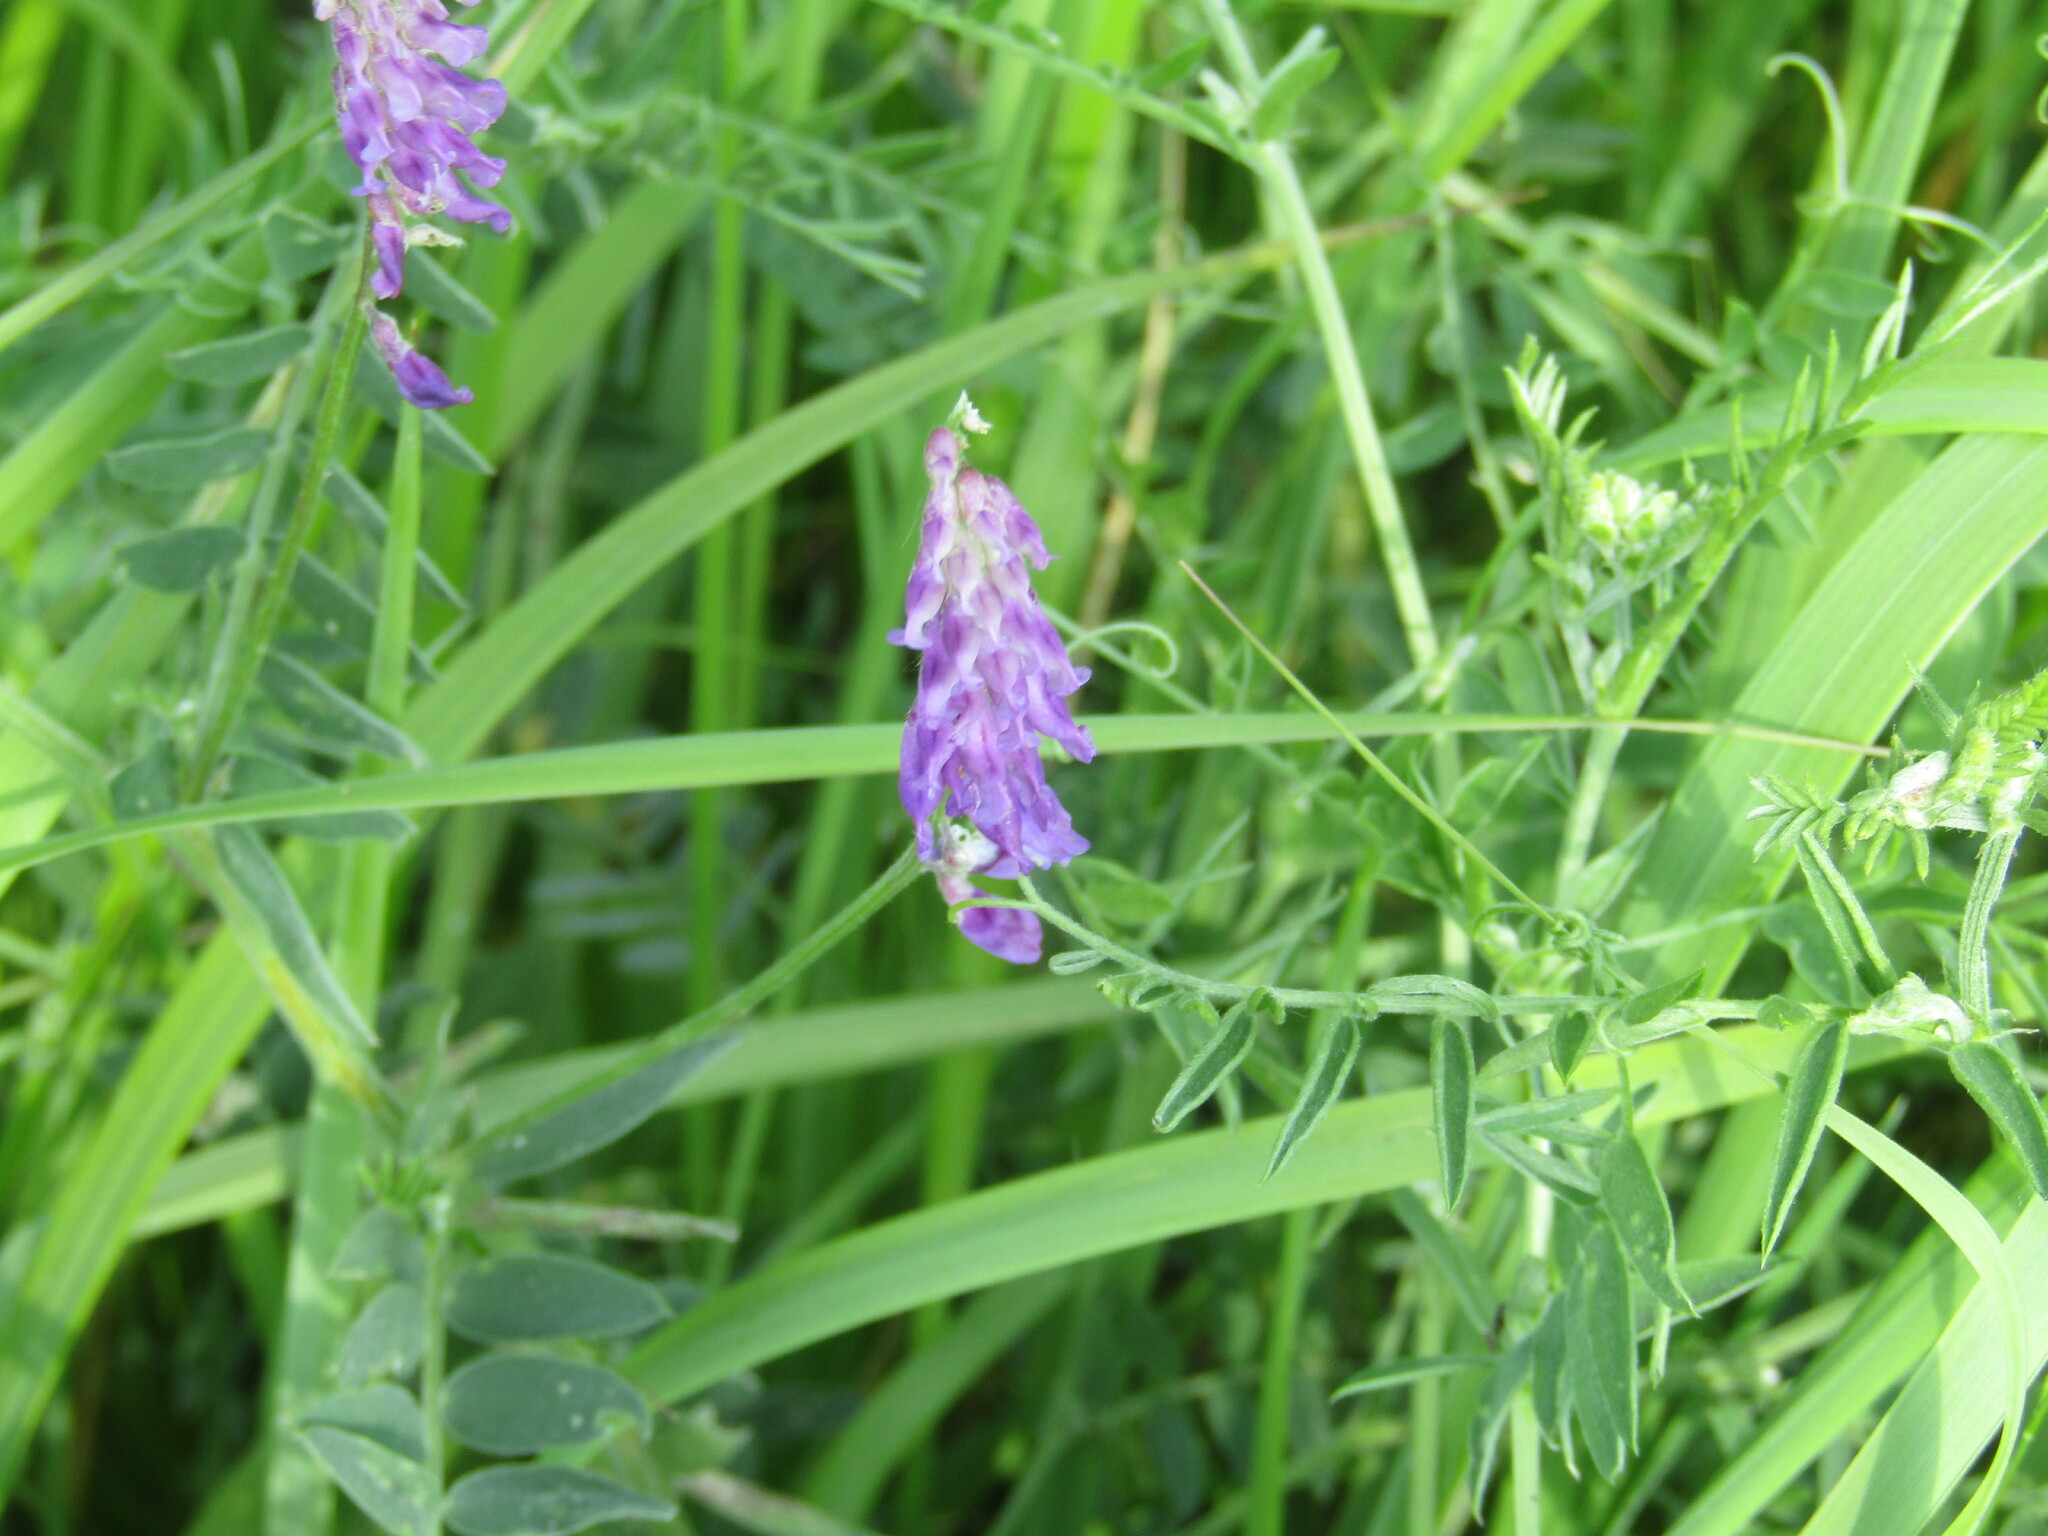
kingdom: Plantae
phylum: Tracheophyta
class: Magnoliopsida
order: Fabales
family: Fabaceae
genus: Vicia
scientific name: Vicia cracca
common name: Bird vetch
